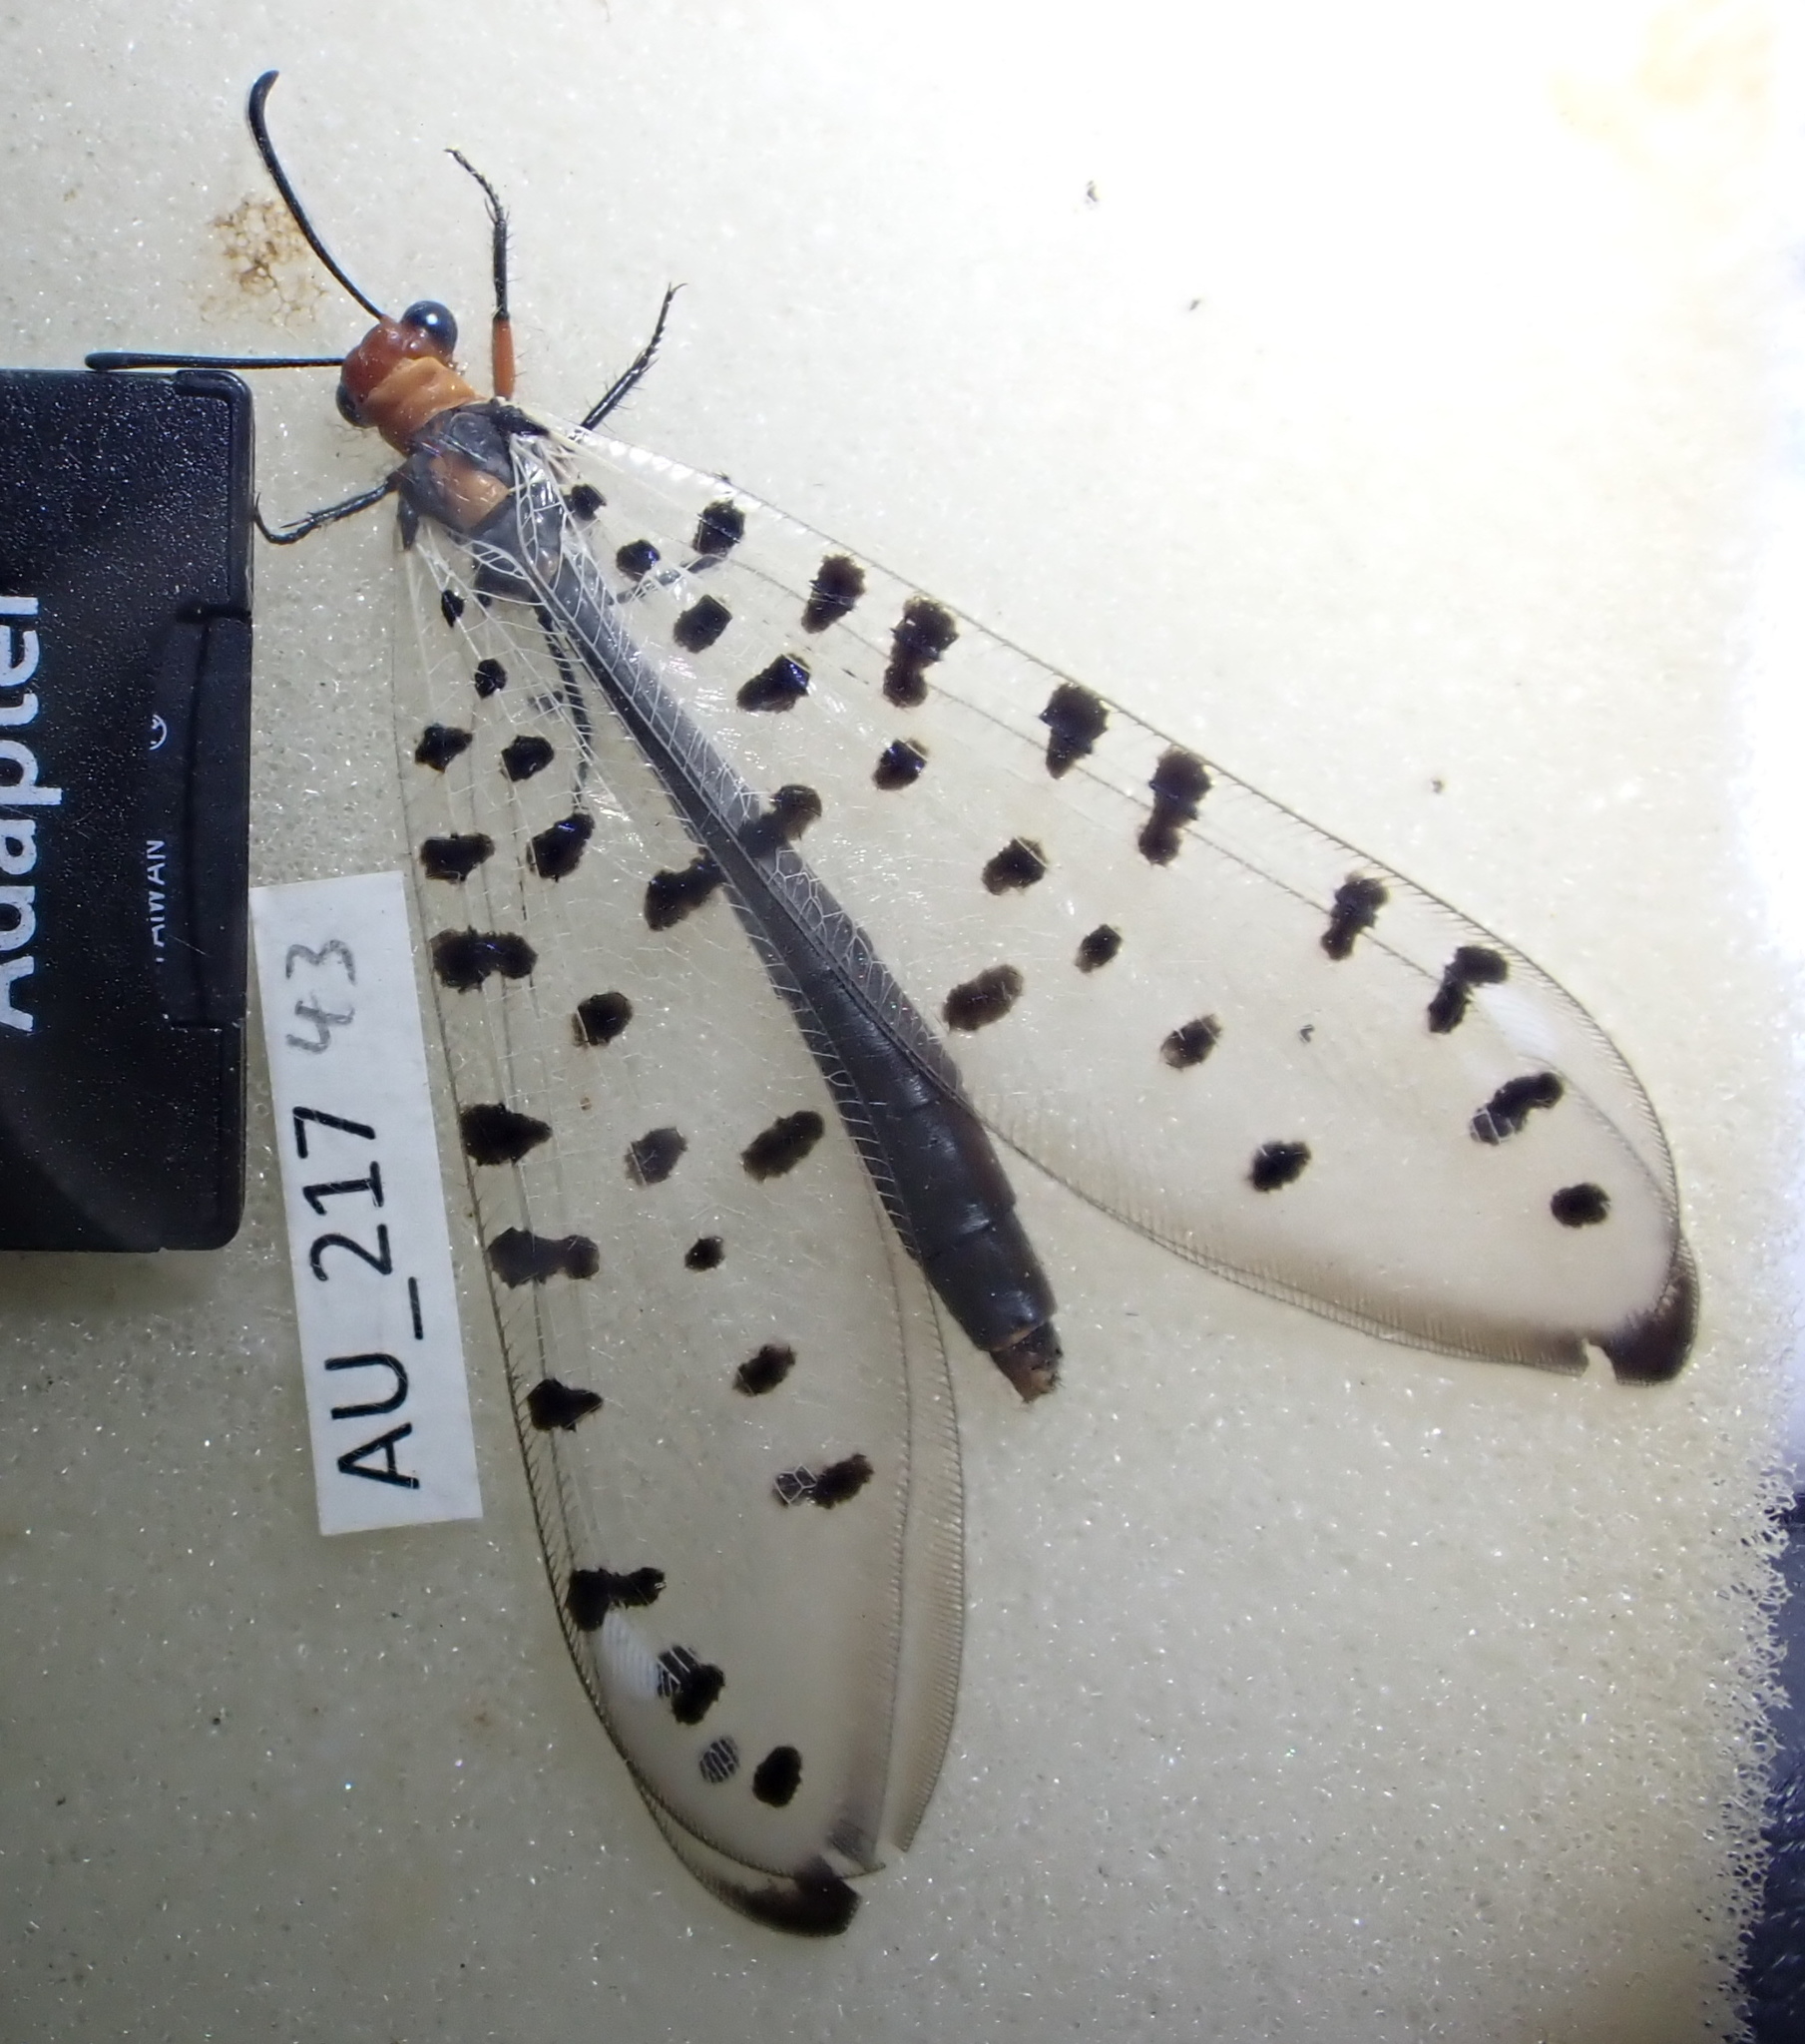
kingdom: Animalia
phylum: Arthropoda
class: Insecta
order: Neuroptera
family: Myrmeleontidae
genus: Myrmeleon
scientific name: Myrmeleon erythrocephalus
